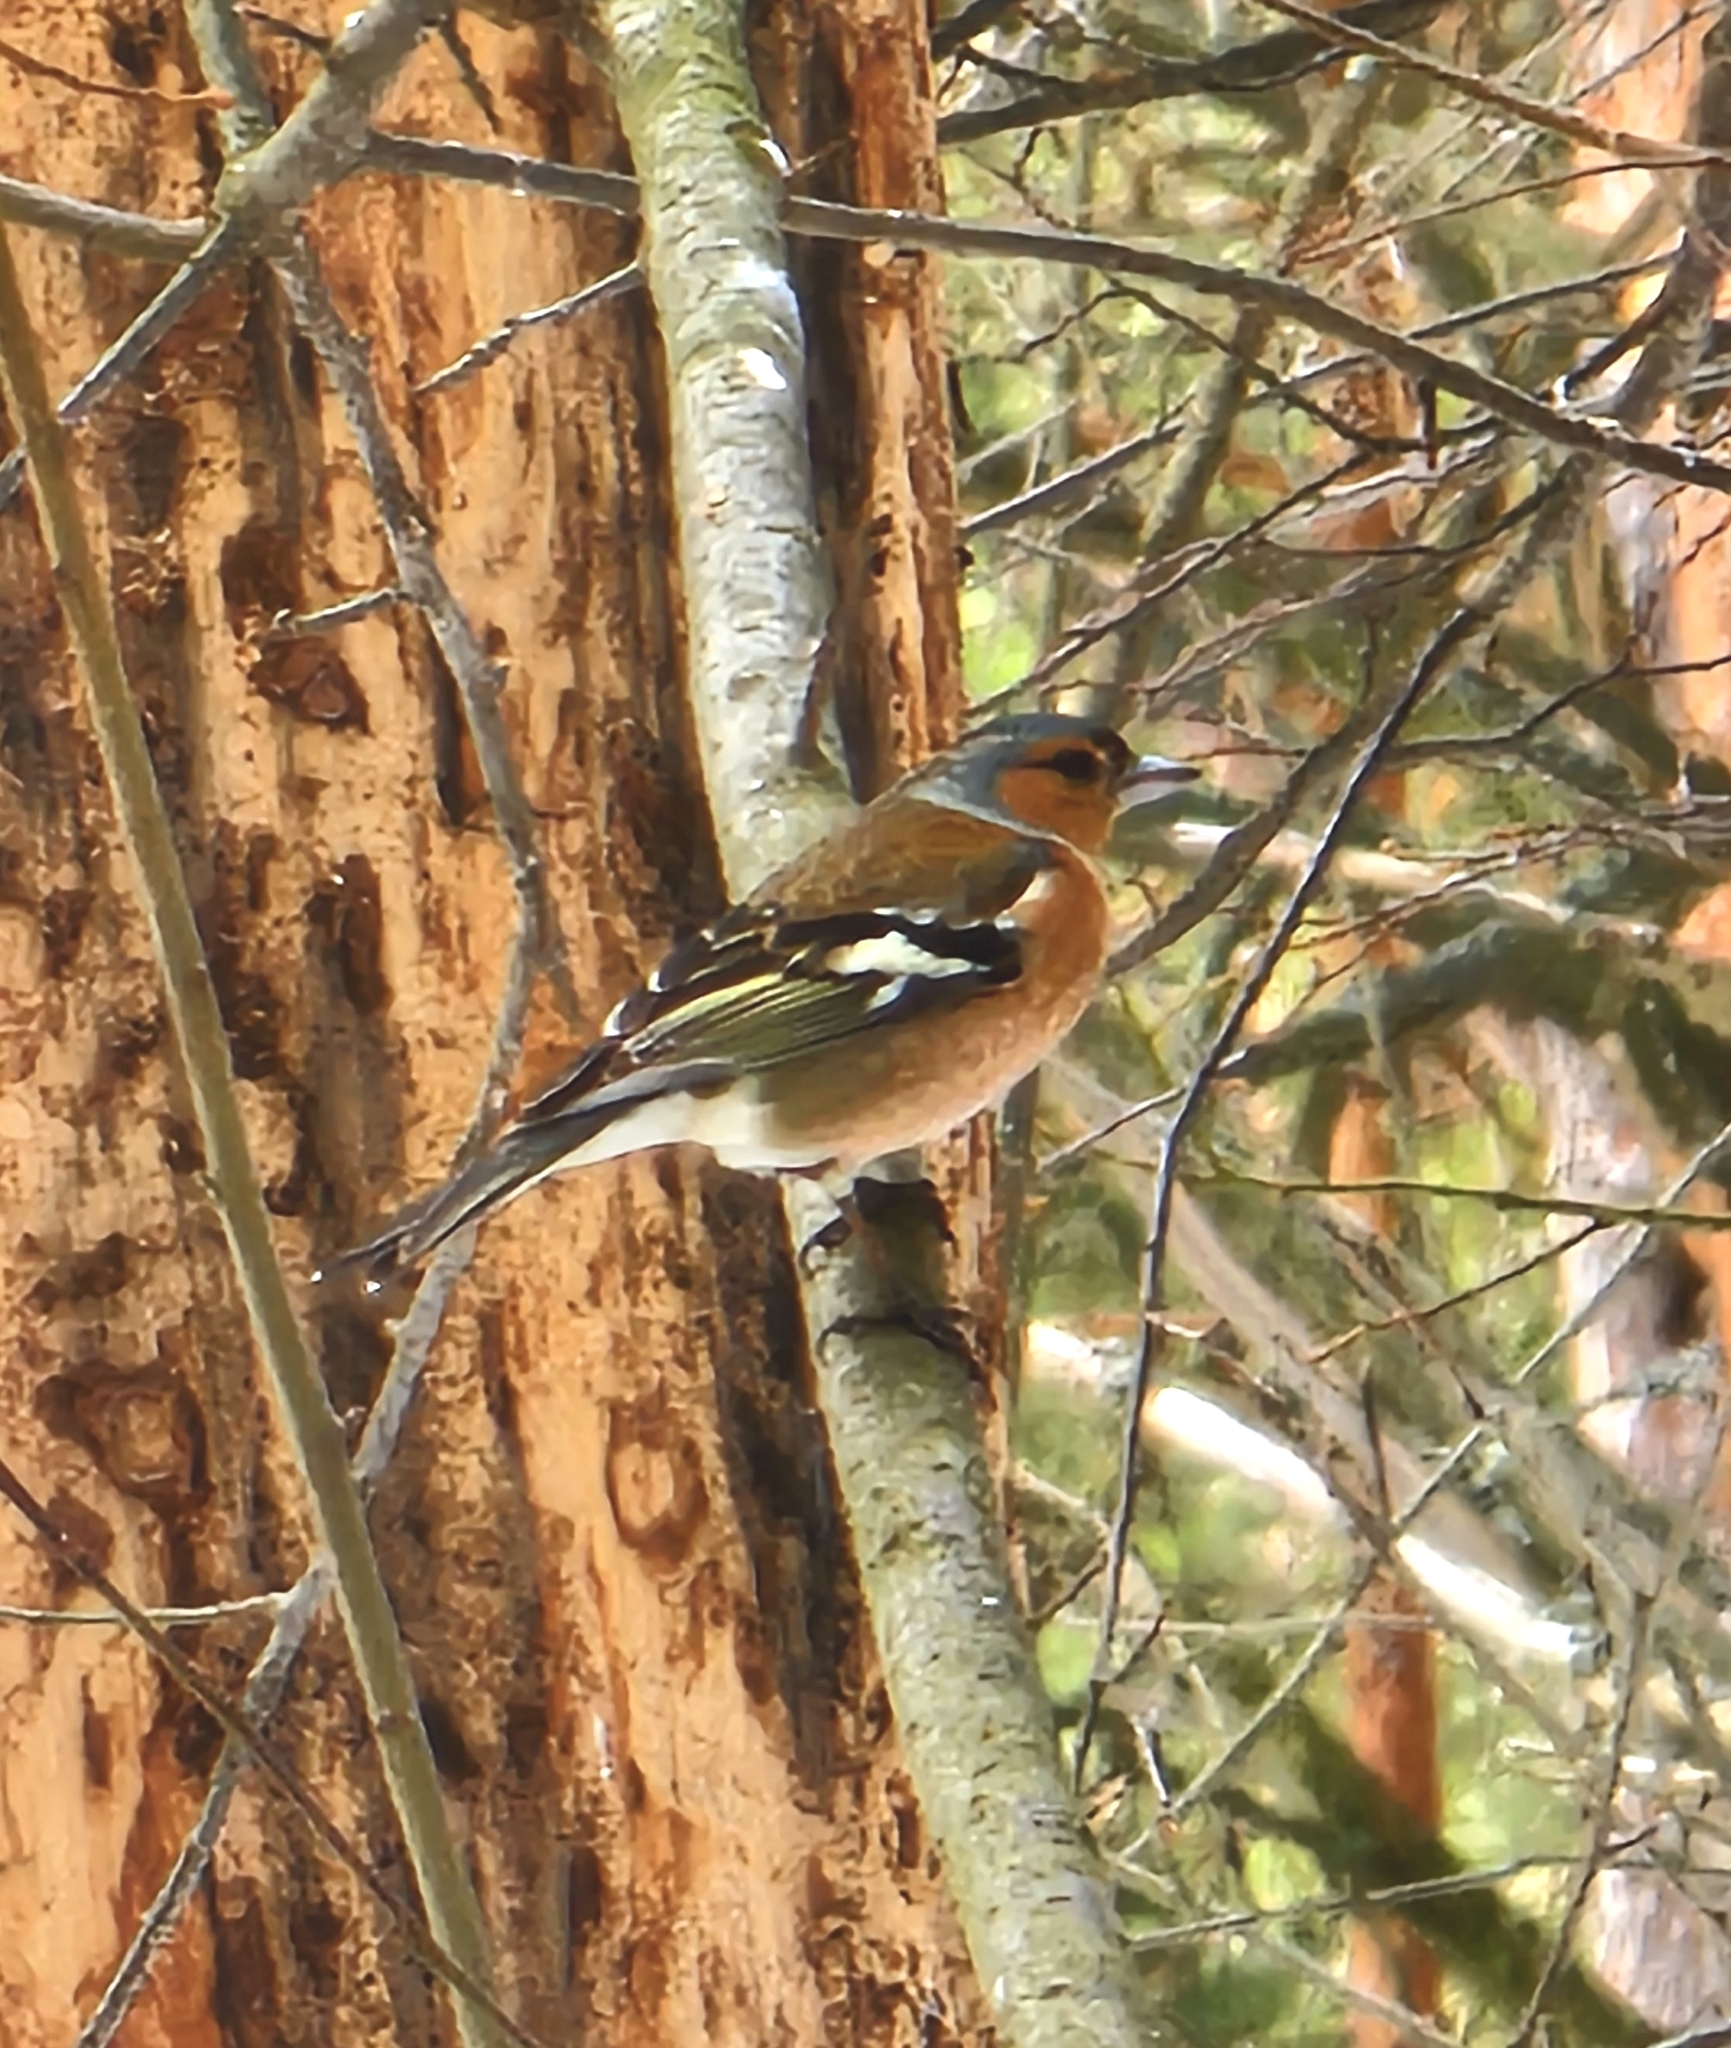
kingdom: Animalia
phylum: Chordata
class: Aves
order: Passeriformes
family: Fringillidae
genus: Fringilla
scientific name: Fringilla coelebs
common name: Common chaffinch
